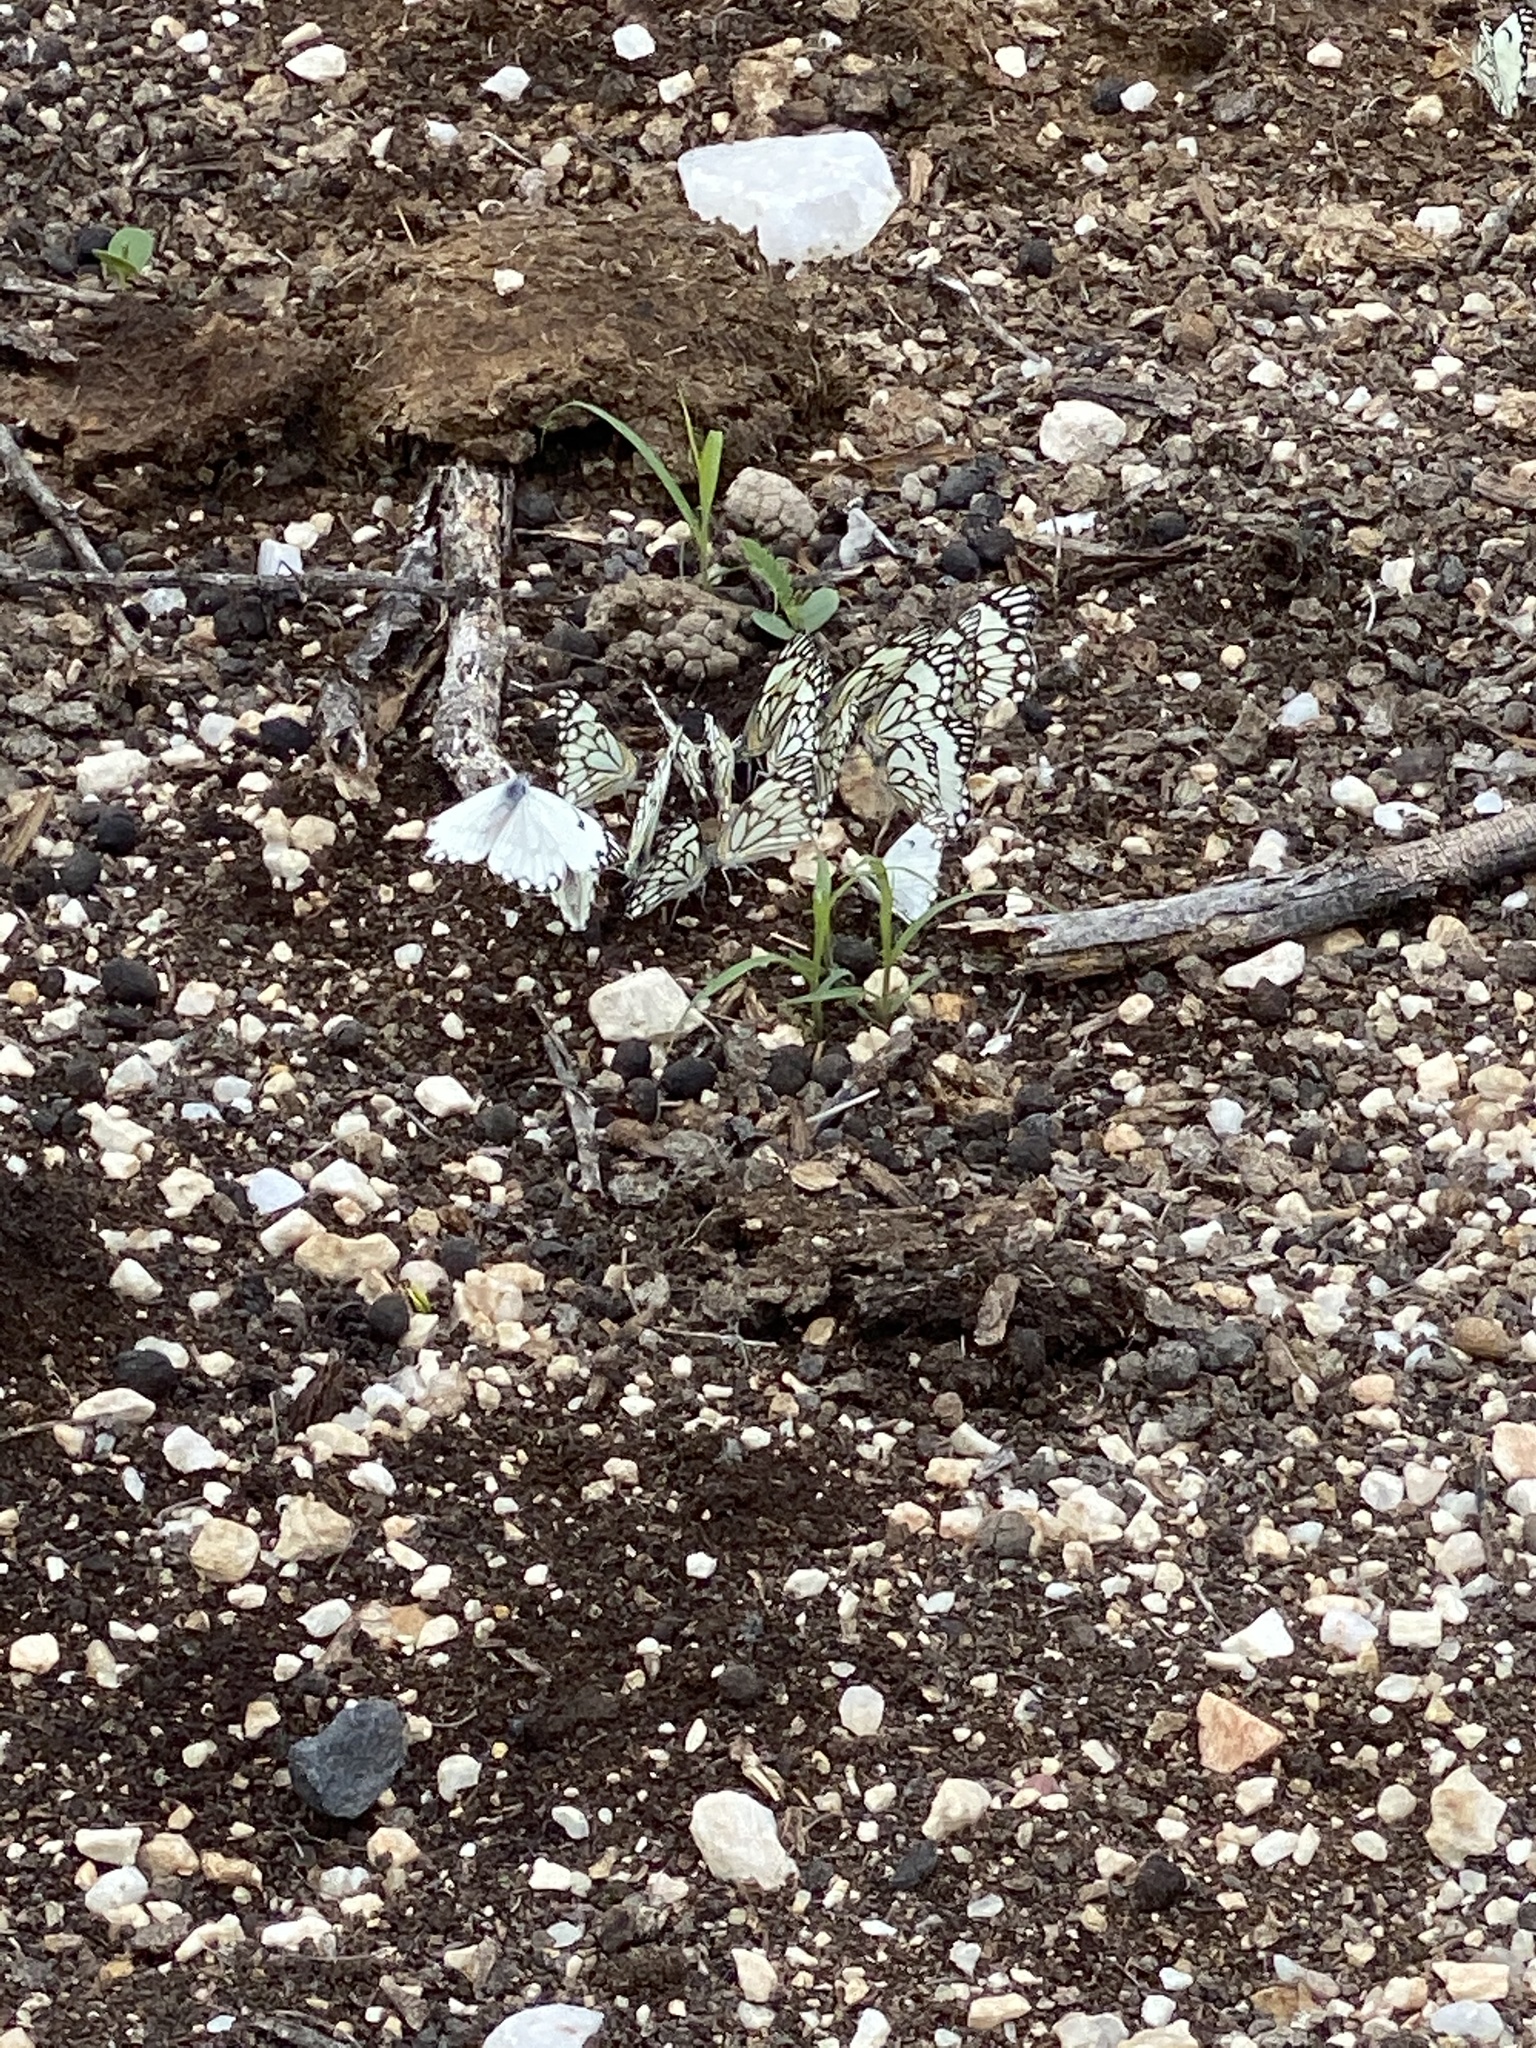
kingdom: Animalia
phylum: Arthropoda
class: Insecta
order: Lepidoptera
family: Pieridae
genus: Belenois
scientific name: Belenois aurota
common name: Brown-veined white
